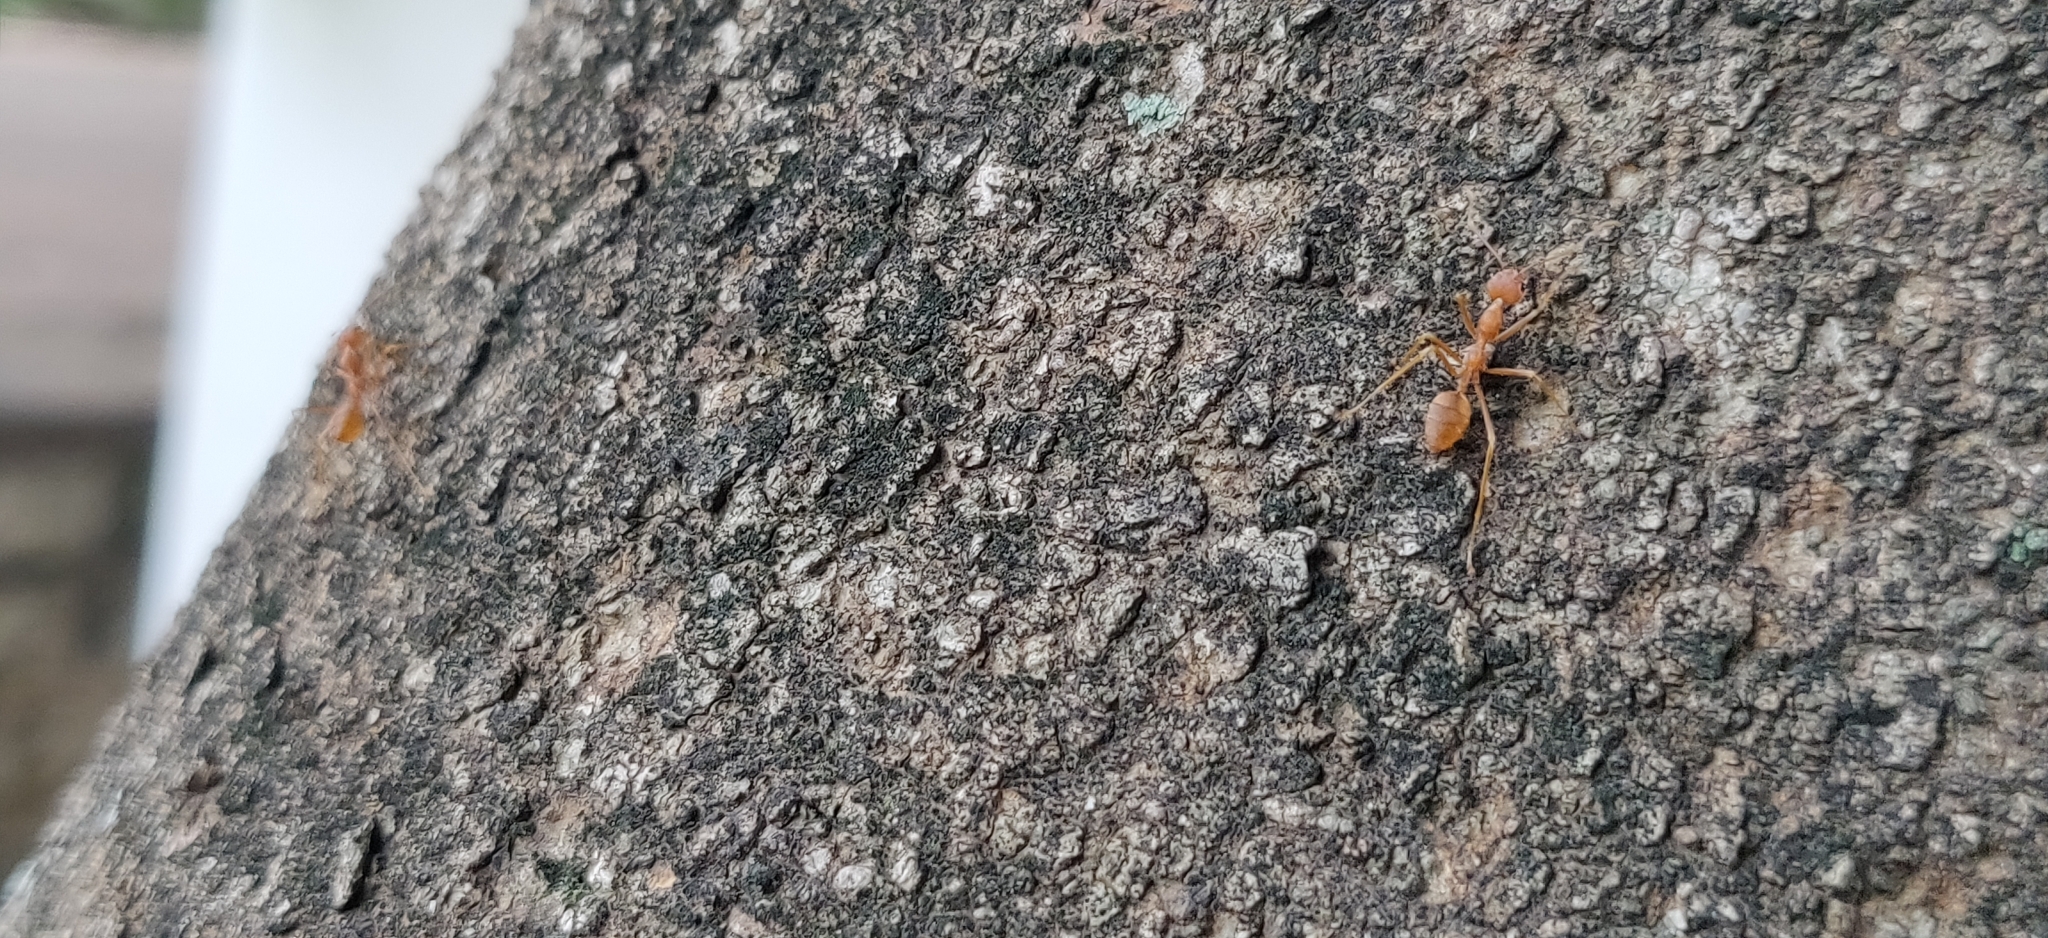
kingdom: Animalia
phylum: Arthropoda
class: Insecta
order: Hymenoptera
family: Formicidae
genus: Oecophylla
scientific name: Oecophylla smaragdina
